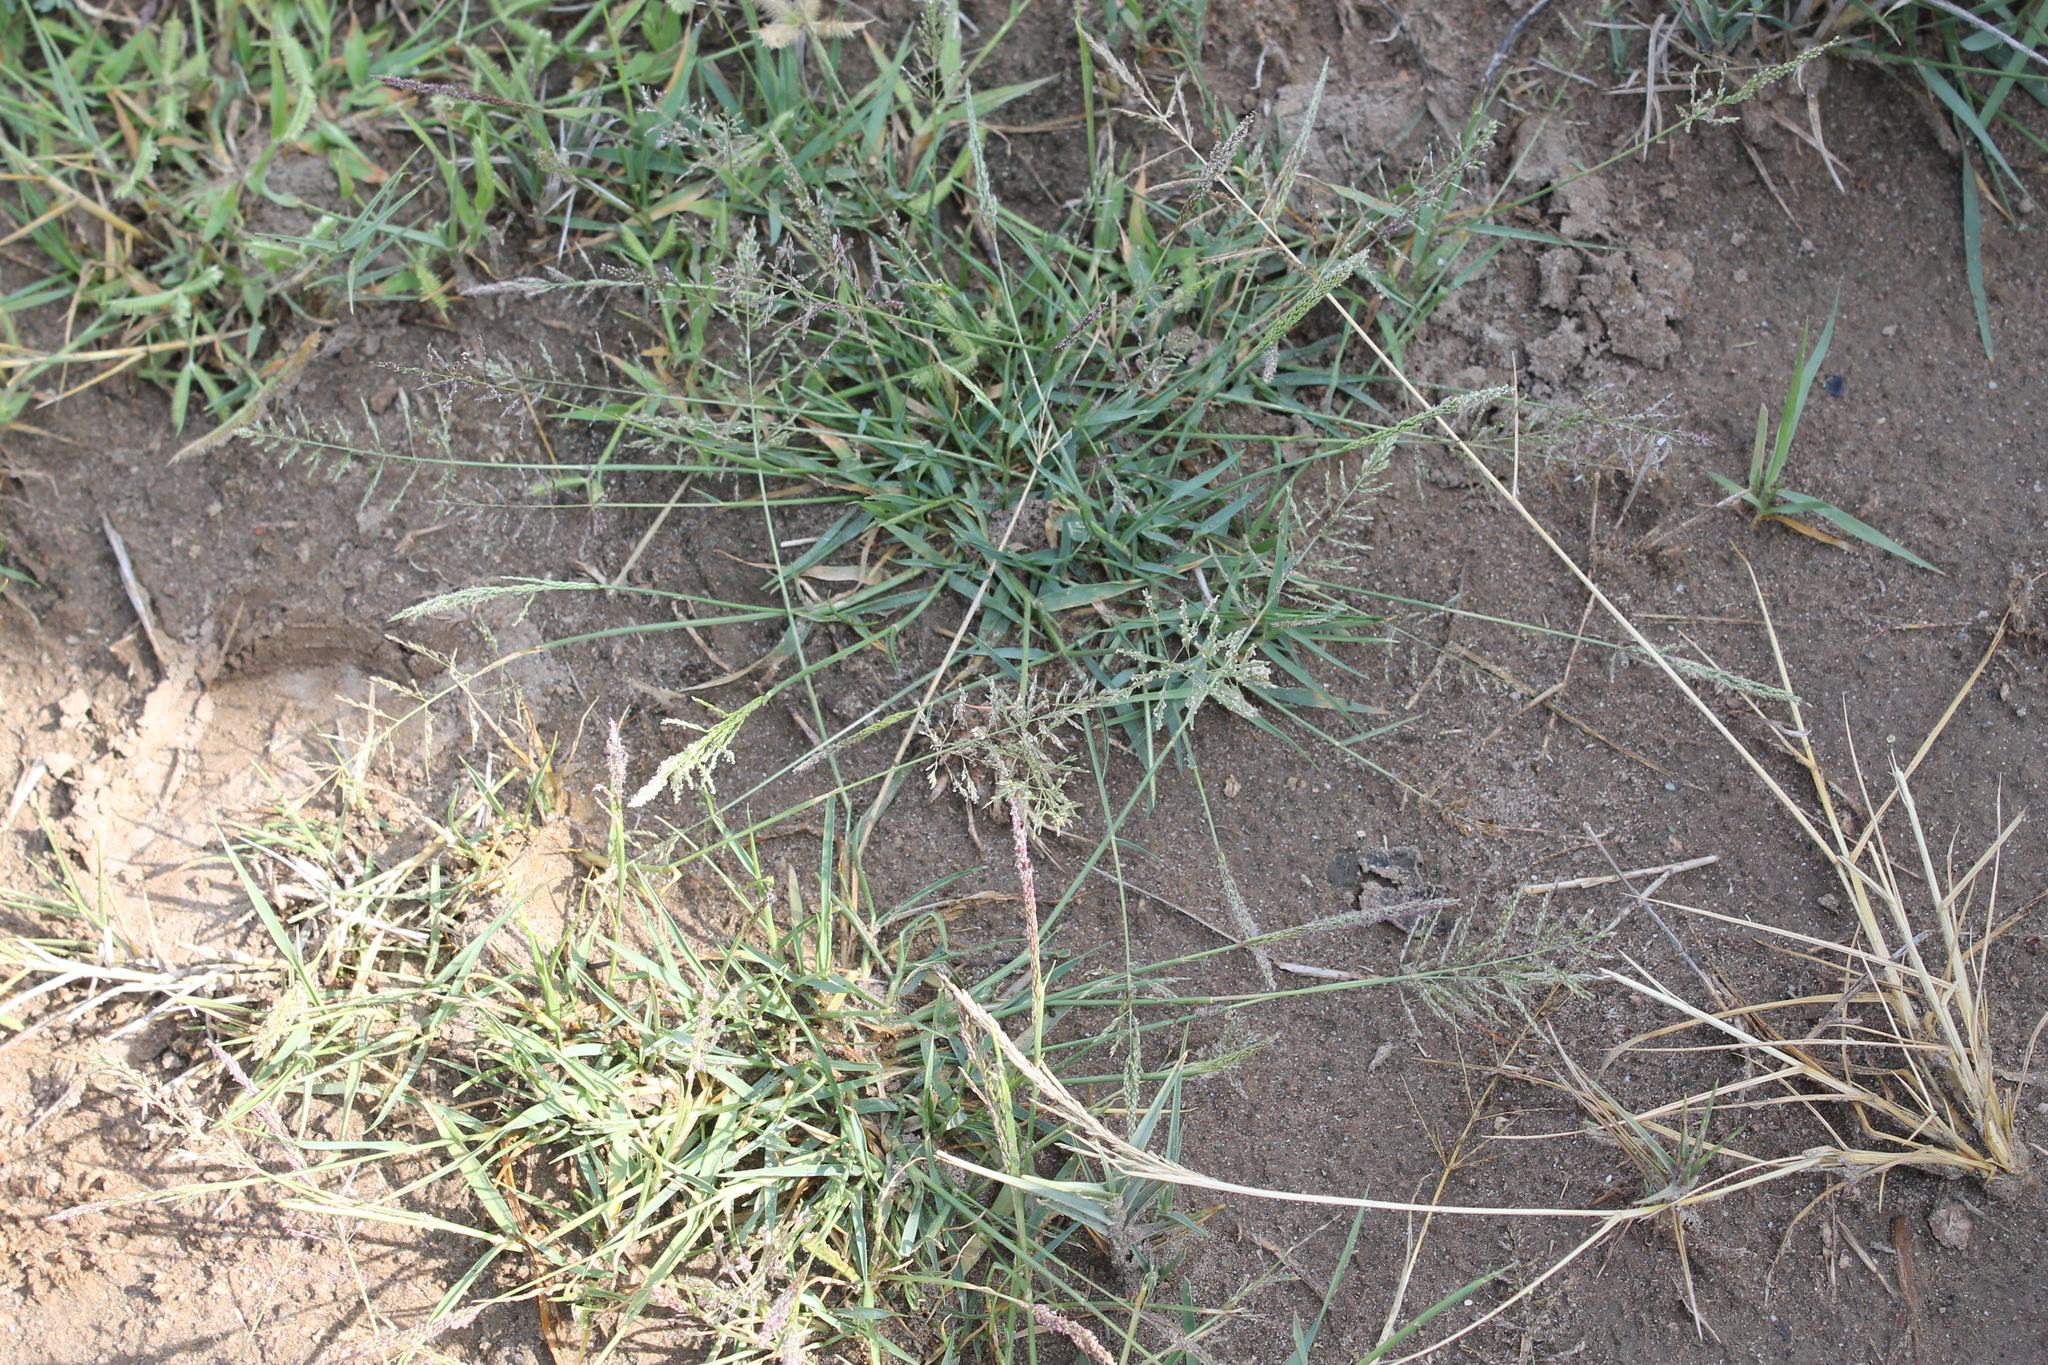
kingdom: Plantae
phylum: Tracheophyta
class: Liliopsida
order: Poales
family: Poaceae
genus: Sporobolus
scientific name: Sporobolus pyramidatus
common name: Whorled dropseed
